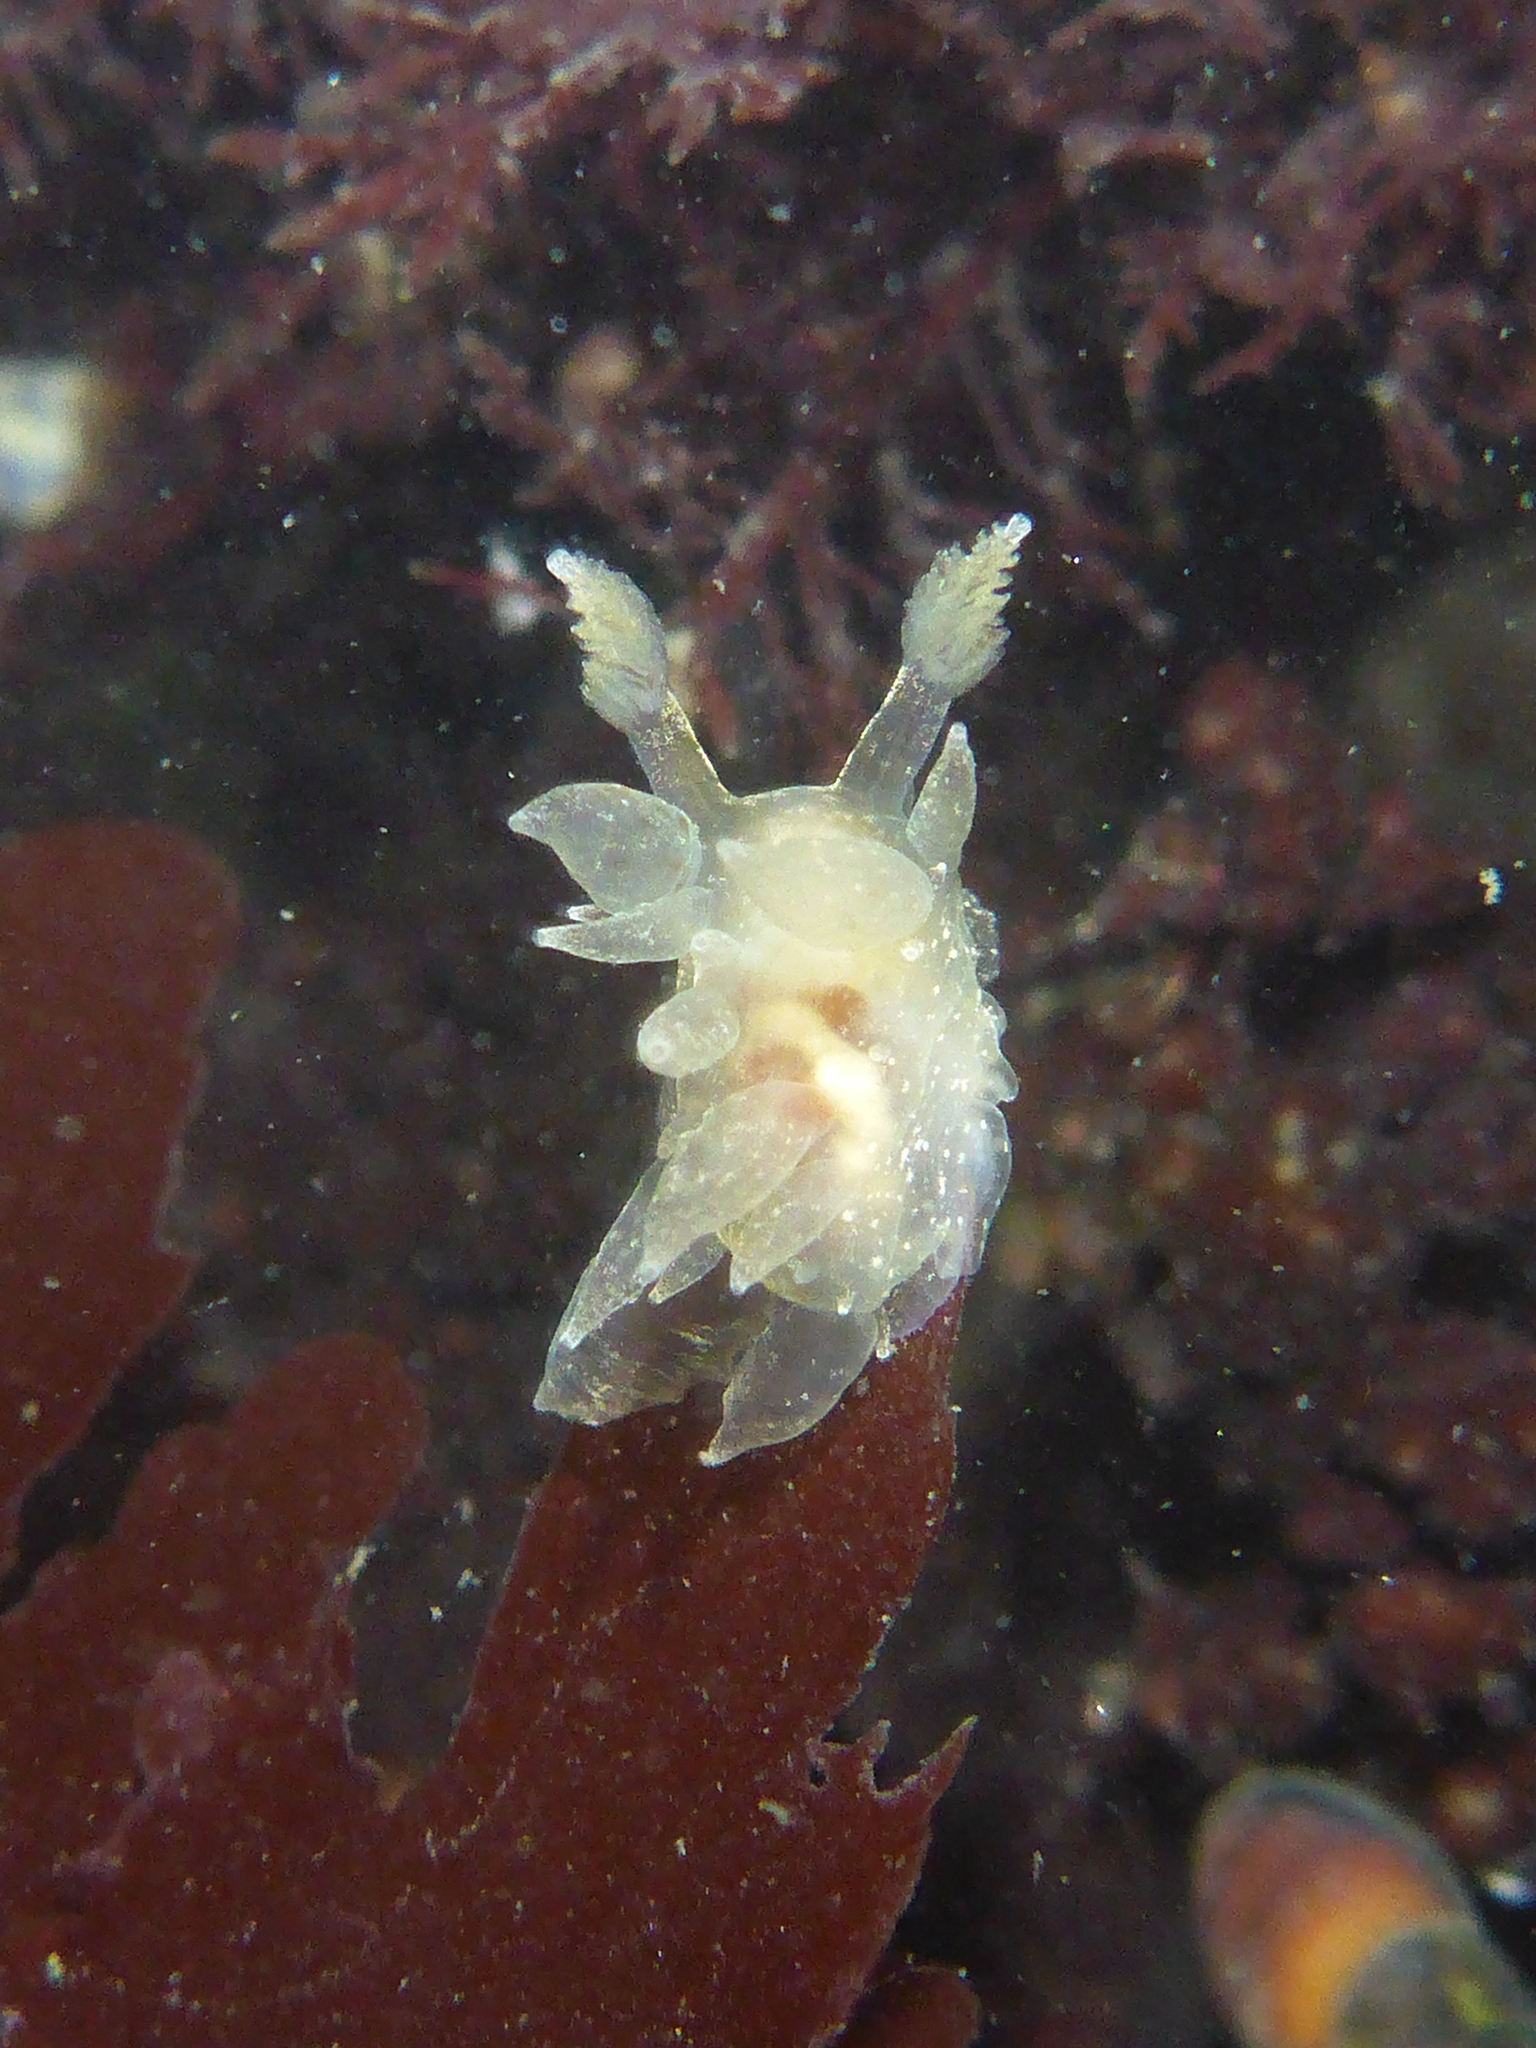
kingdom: Animalia
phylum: Mollusca
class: Gastropoda
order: Nudibranchia
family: Dironidae
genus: Dirona
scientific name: Dirona picta
